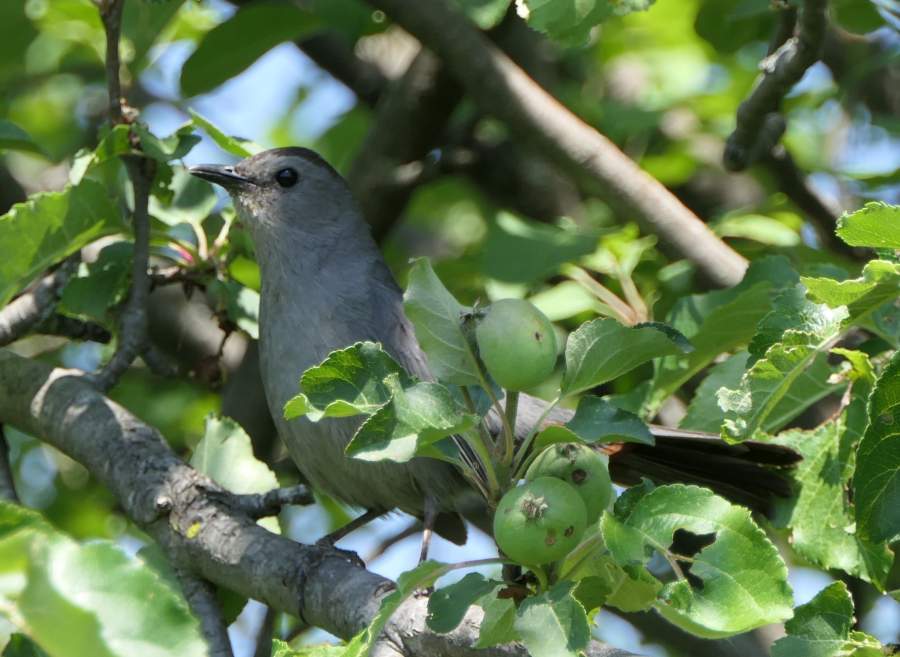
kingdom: Animalia
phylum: Chordata
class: Aves
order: Passeriformes
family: Mimidae
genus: Dumetella
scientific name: Dumetella carolinensis
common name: Gray catbird
